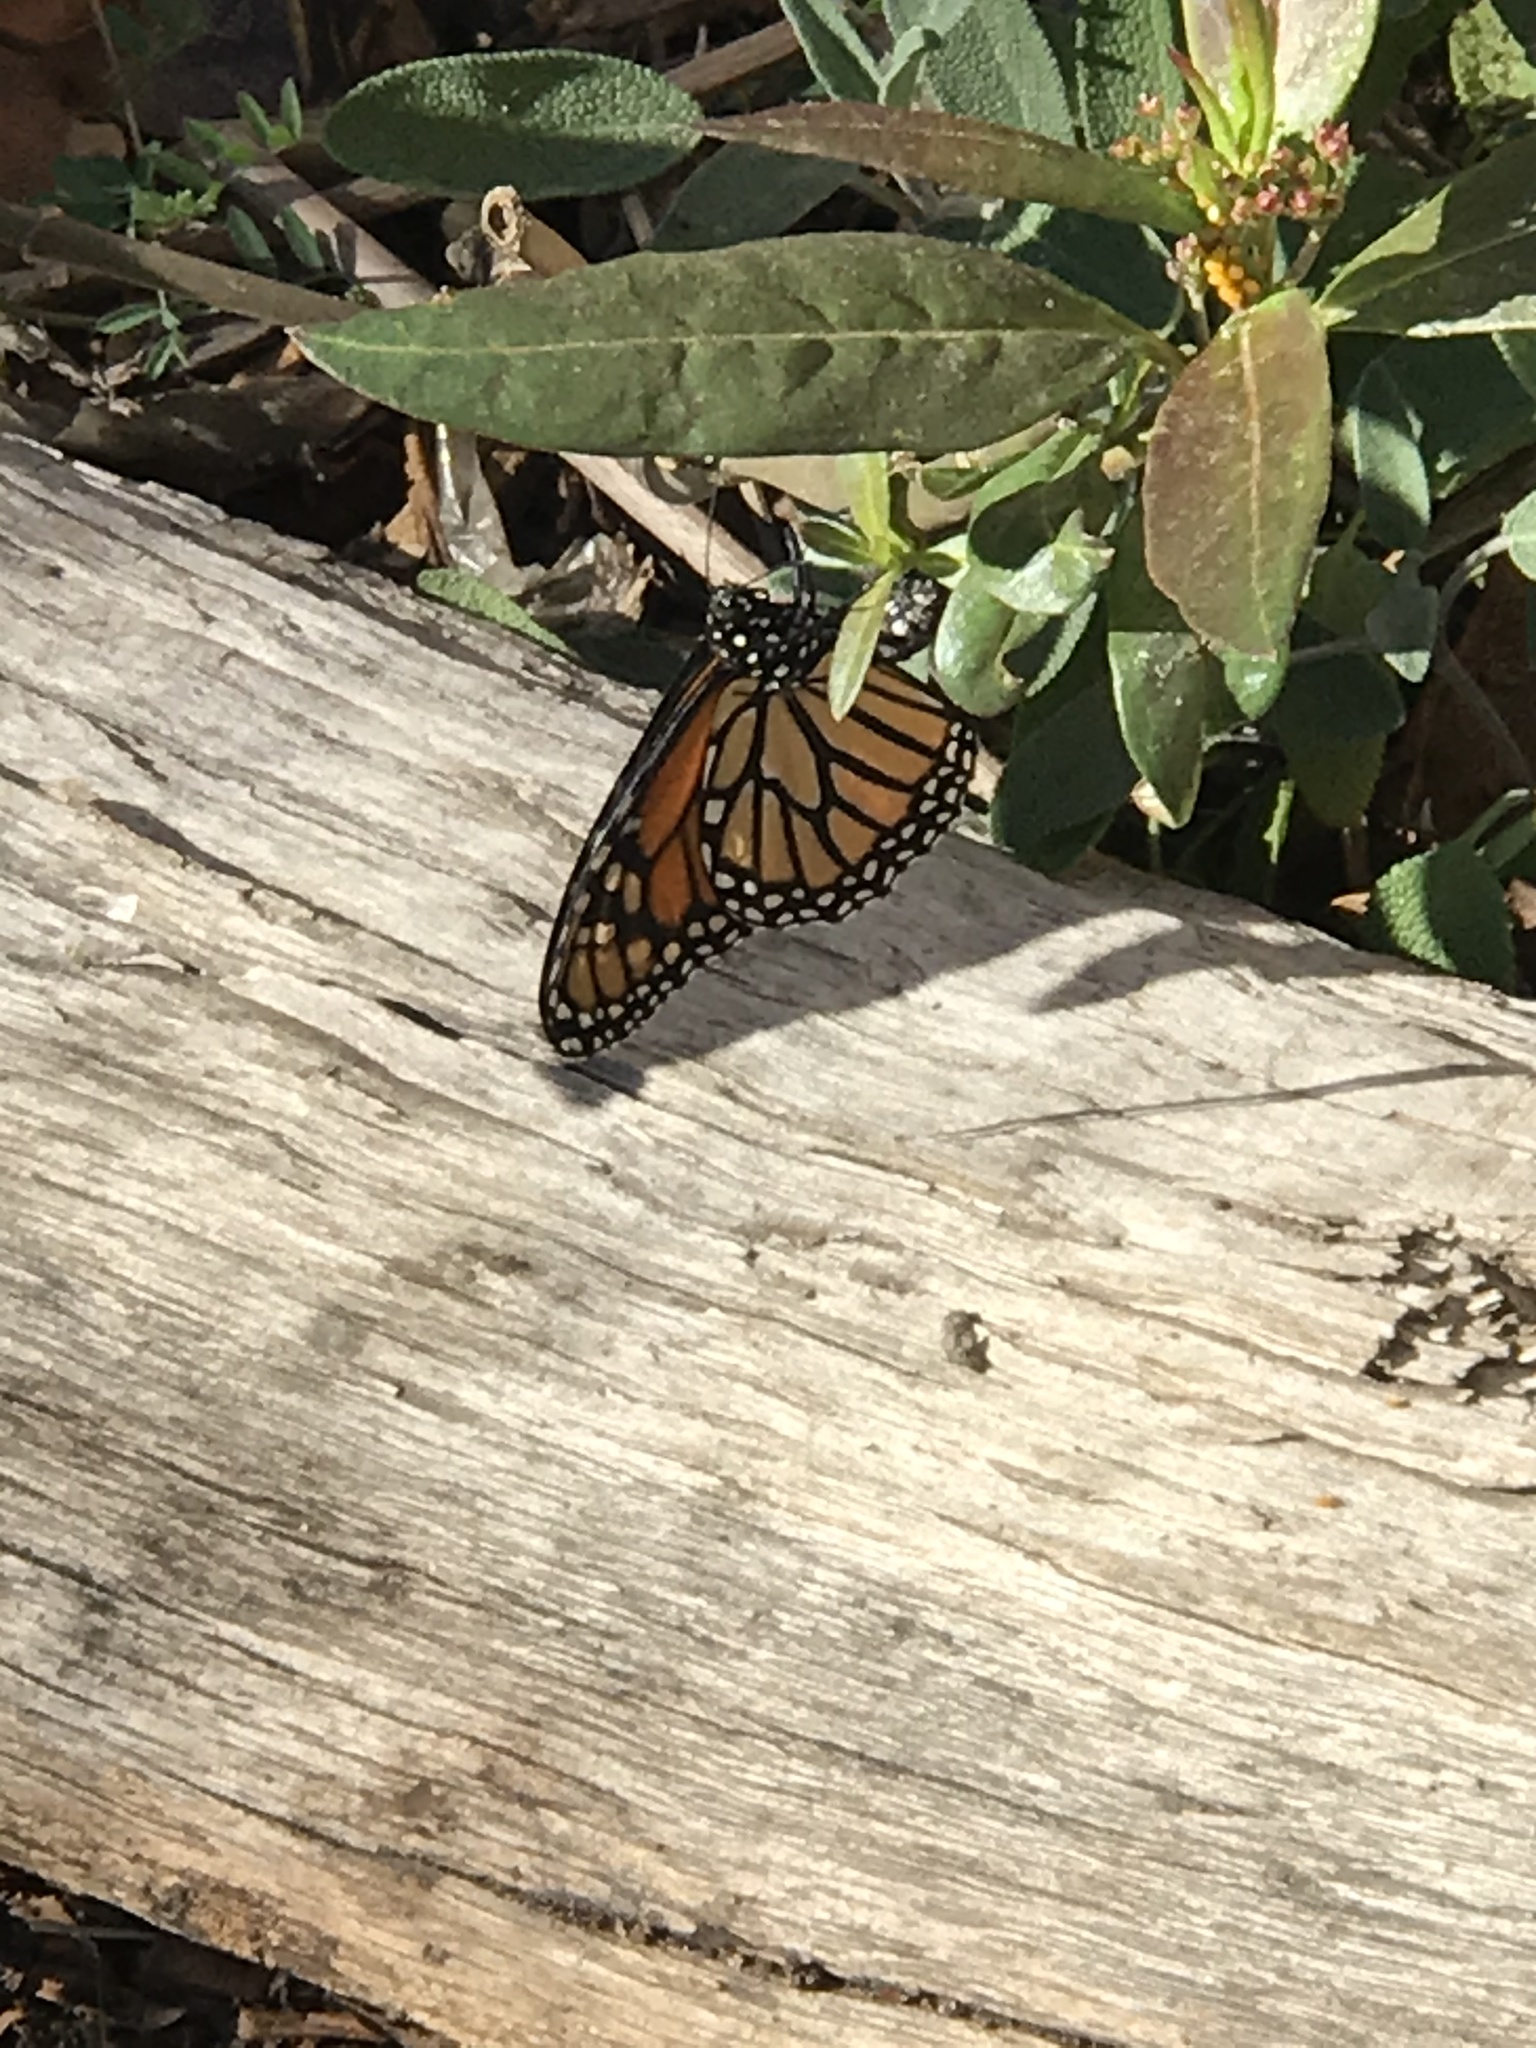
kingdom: Animalia
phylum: Arthropoda
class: Insecta
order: Lepidoptera
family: Nymphalidae
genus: Danaus
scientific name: Danaus plexippus
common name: Monarch
